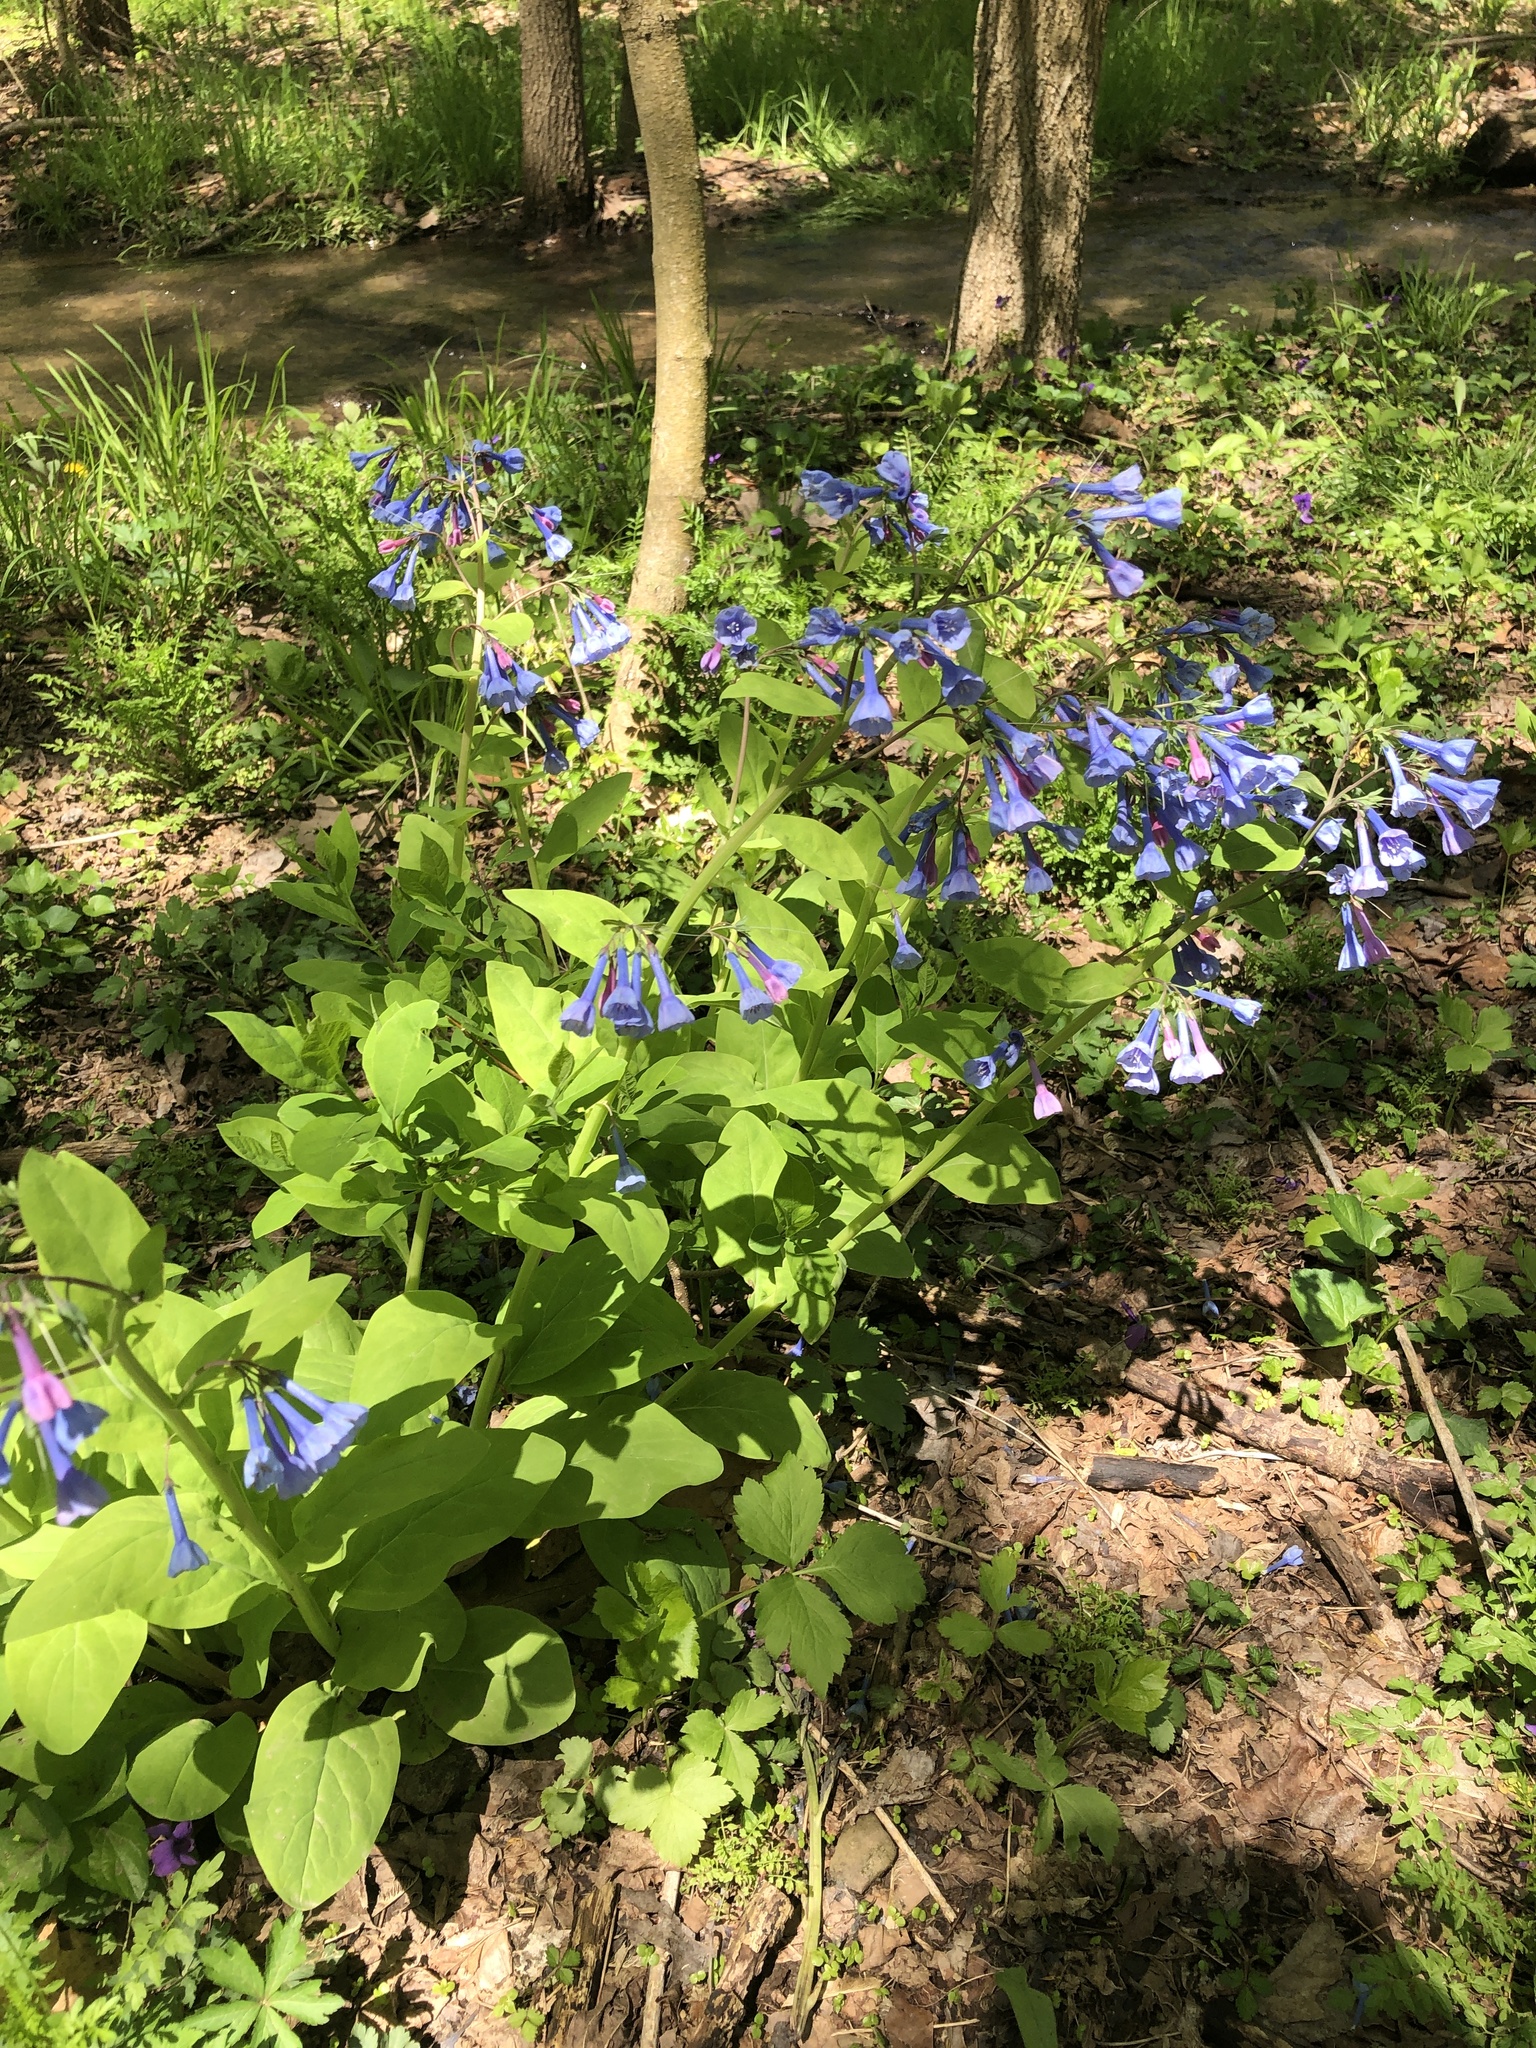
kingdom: Plantae
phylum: Tracheophyta
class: Magnoliopsida
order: Boraginales
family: Boraginaceae
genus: Mertensia
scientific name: Mertensia virginica
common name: Virginia bluebells
